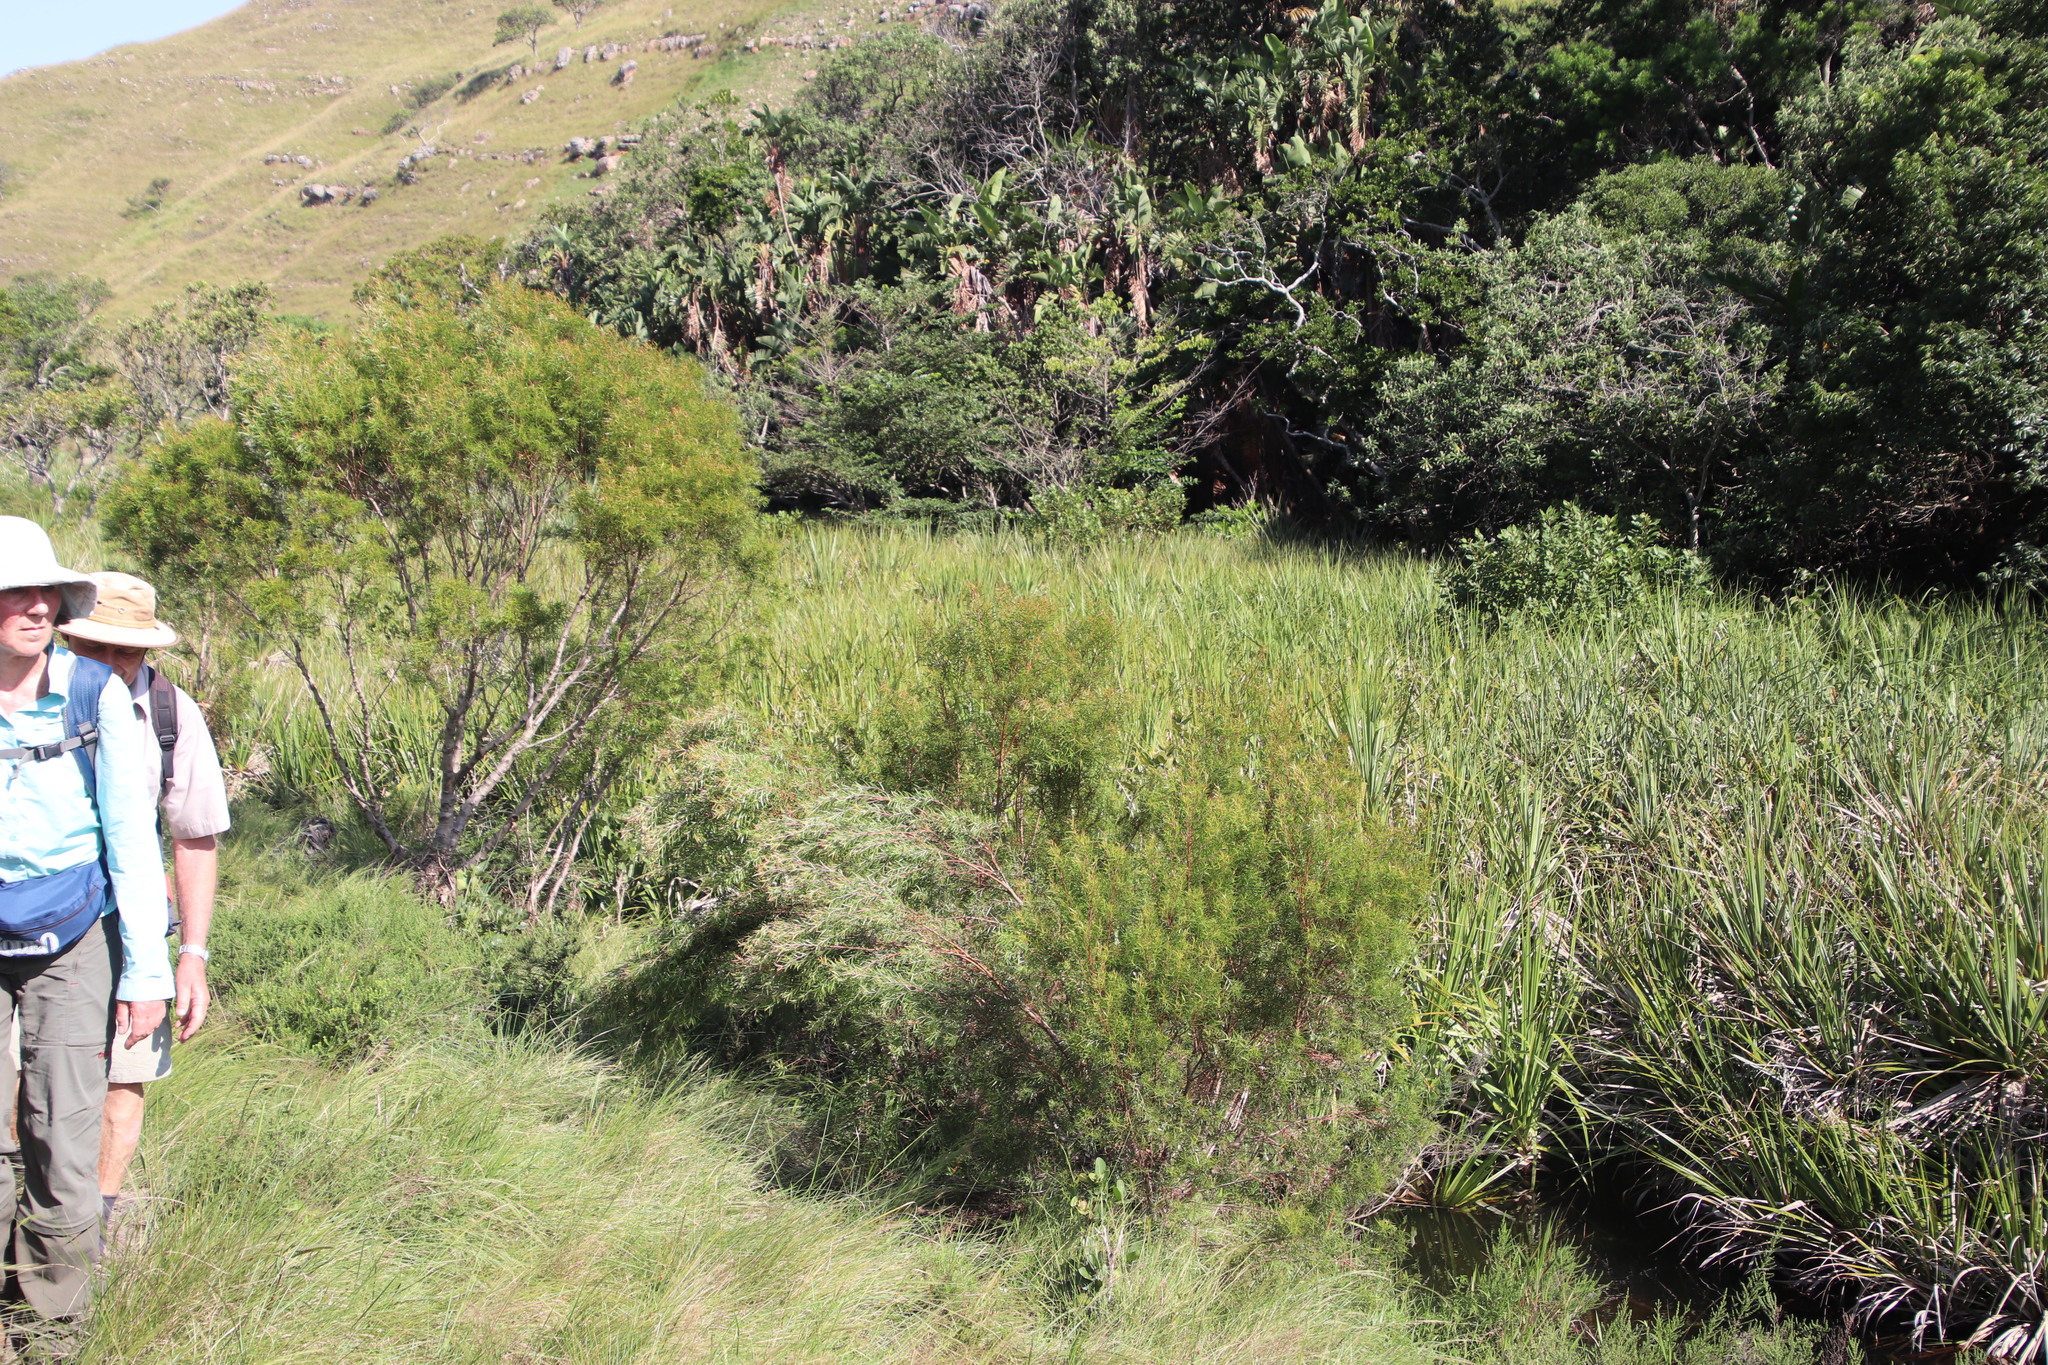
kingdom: Plantae
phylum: Tracheophyta
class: Magnoliopsida
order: Proteales
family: Proteaceae
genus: Leucadendron
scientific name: Leucadendron pondoense
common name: Pondoland conebush
